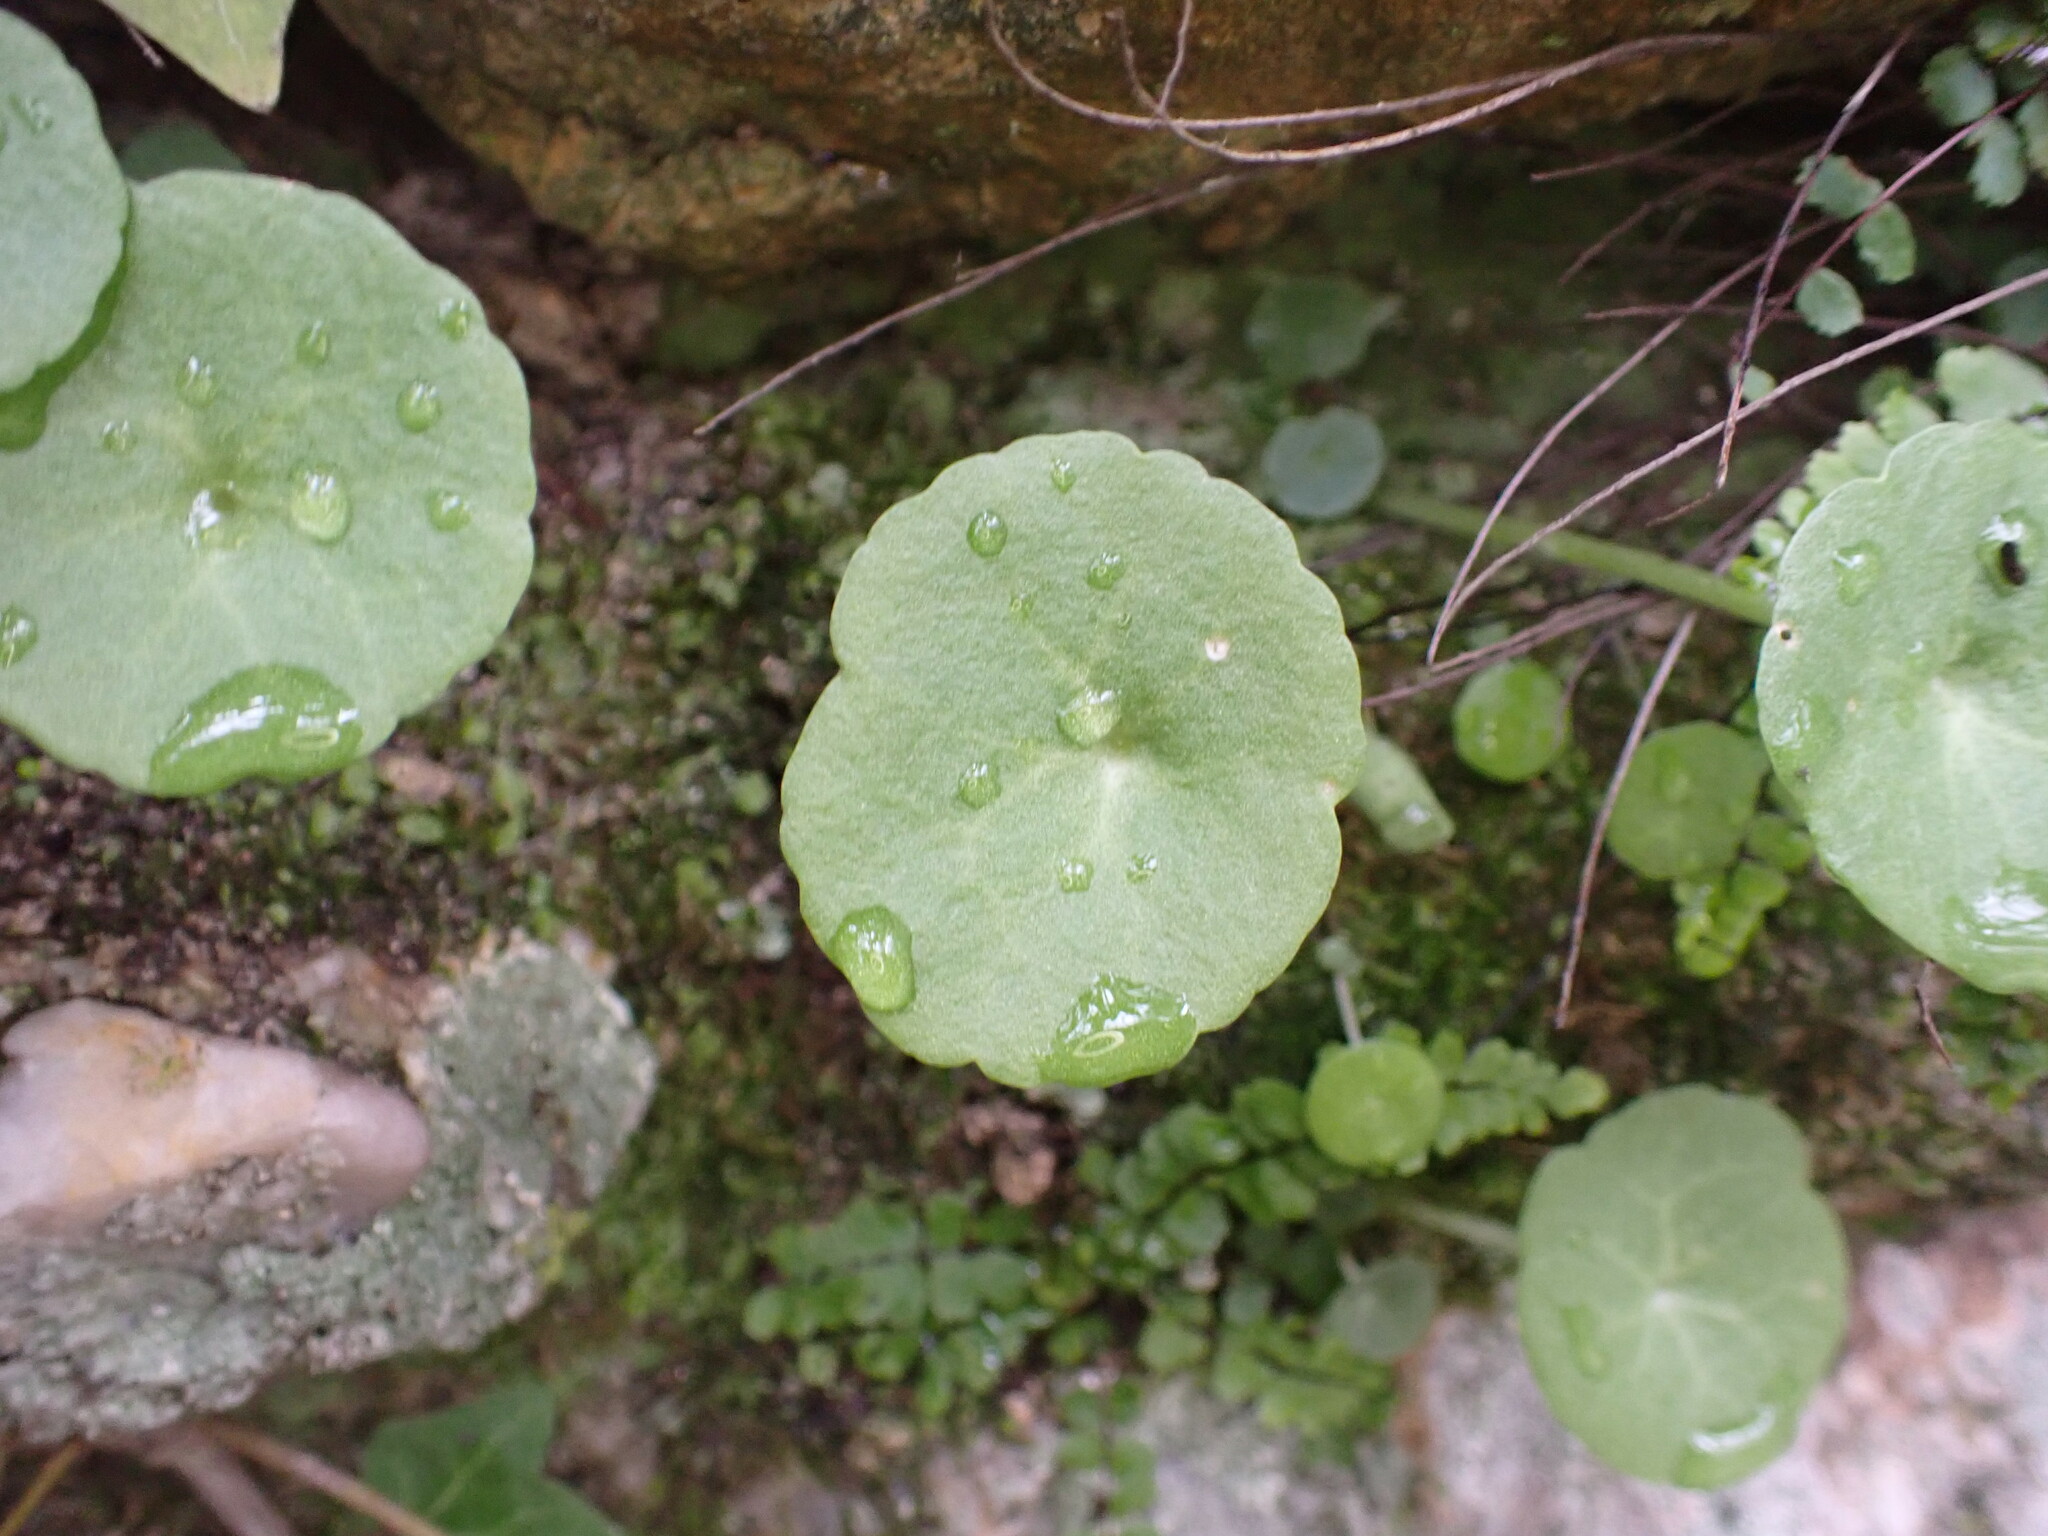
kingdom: Plantae
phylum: Tracheophyta
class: Magnoliopsida
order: Saxifragales
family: Crassulaceae
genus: Umbilicus
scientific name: Umbilicus rupestris
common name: Navelwort
